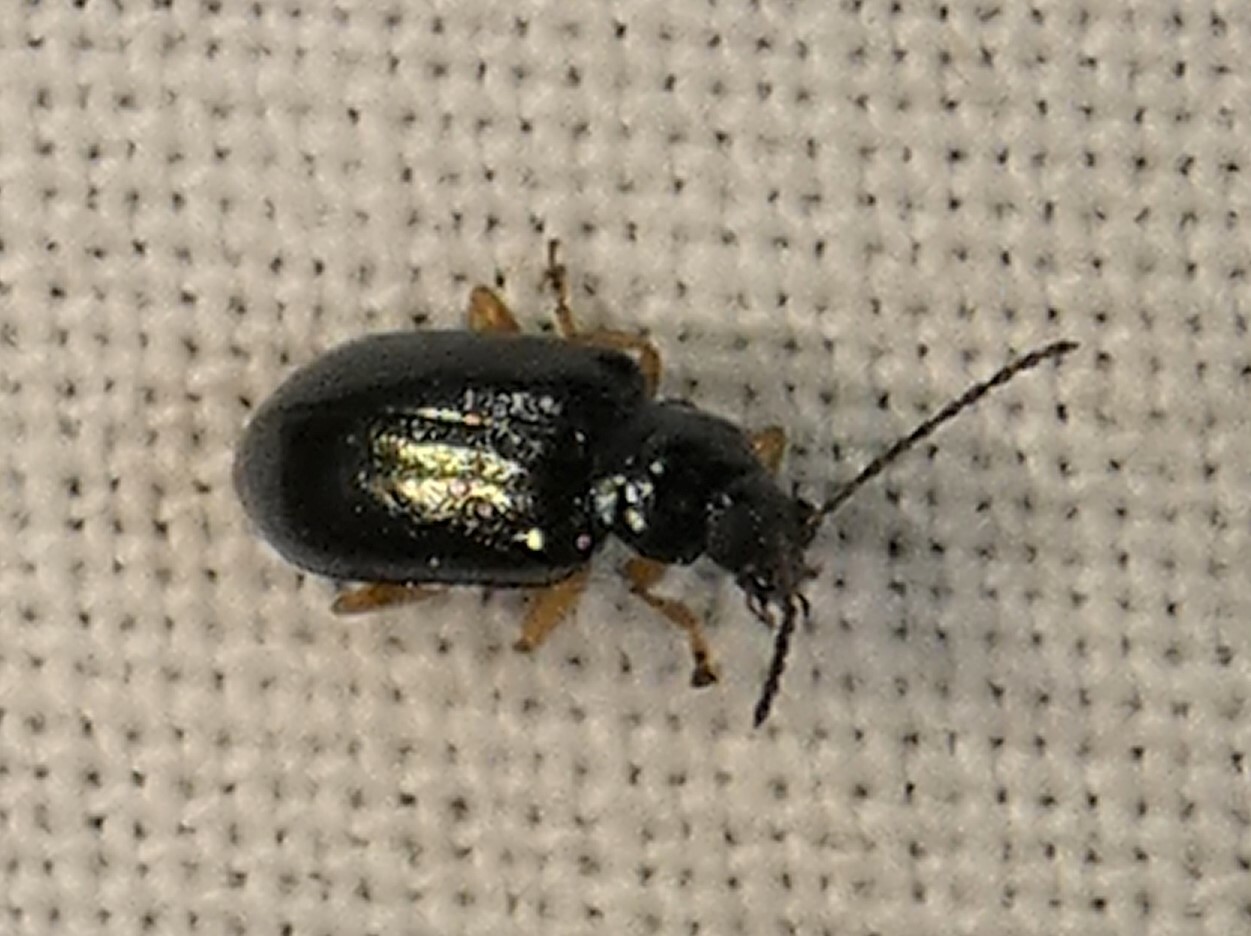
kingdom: Animalia
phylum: Arthropoda
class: Insecta
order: Coleoptera
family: Chrysomelidae
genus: Lysathia
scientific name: Lysathia ludoviciana
